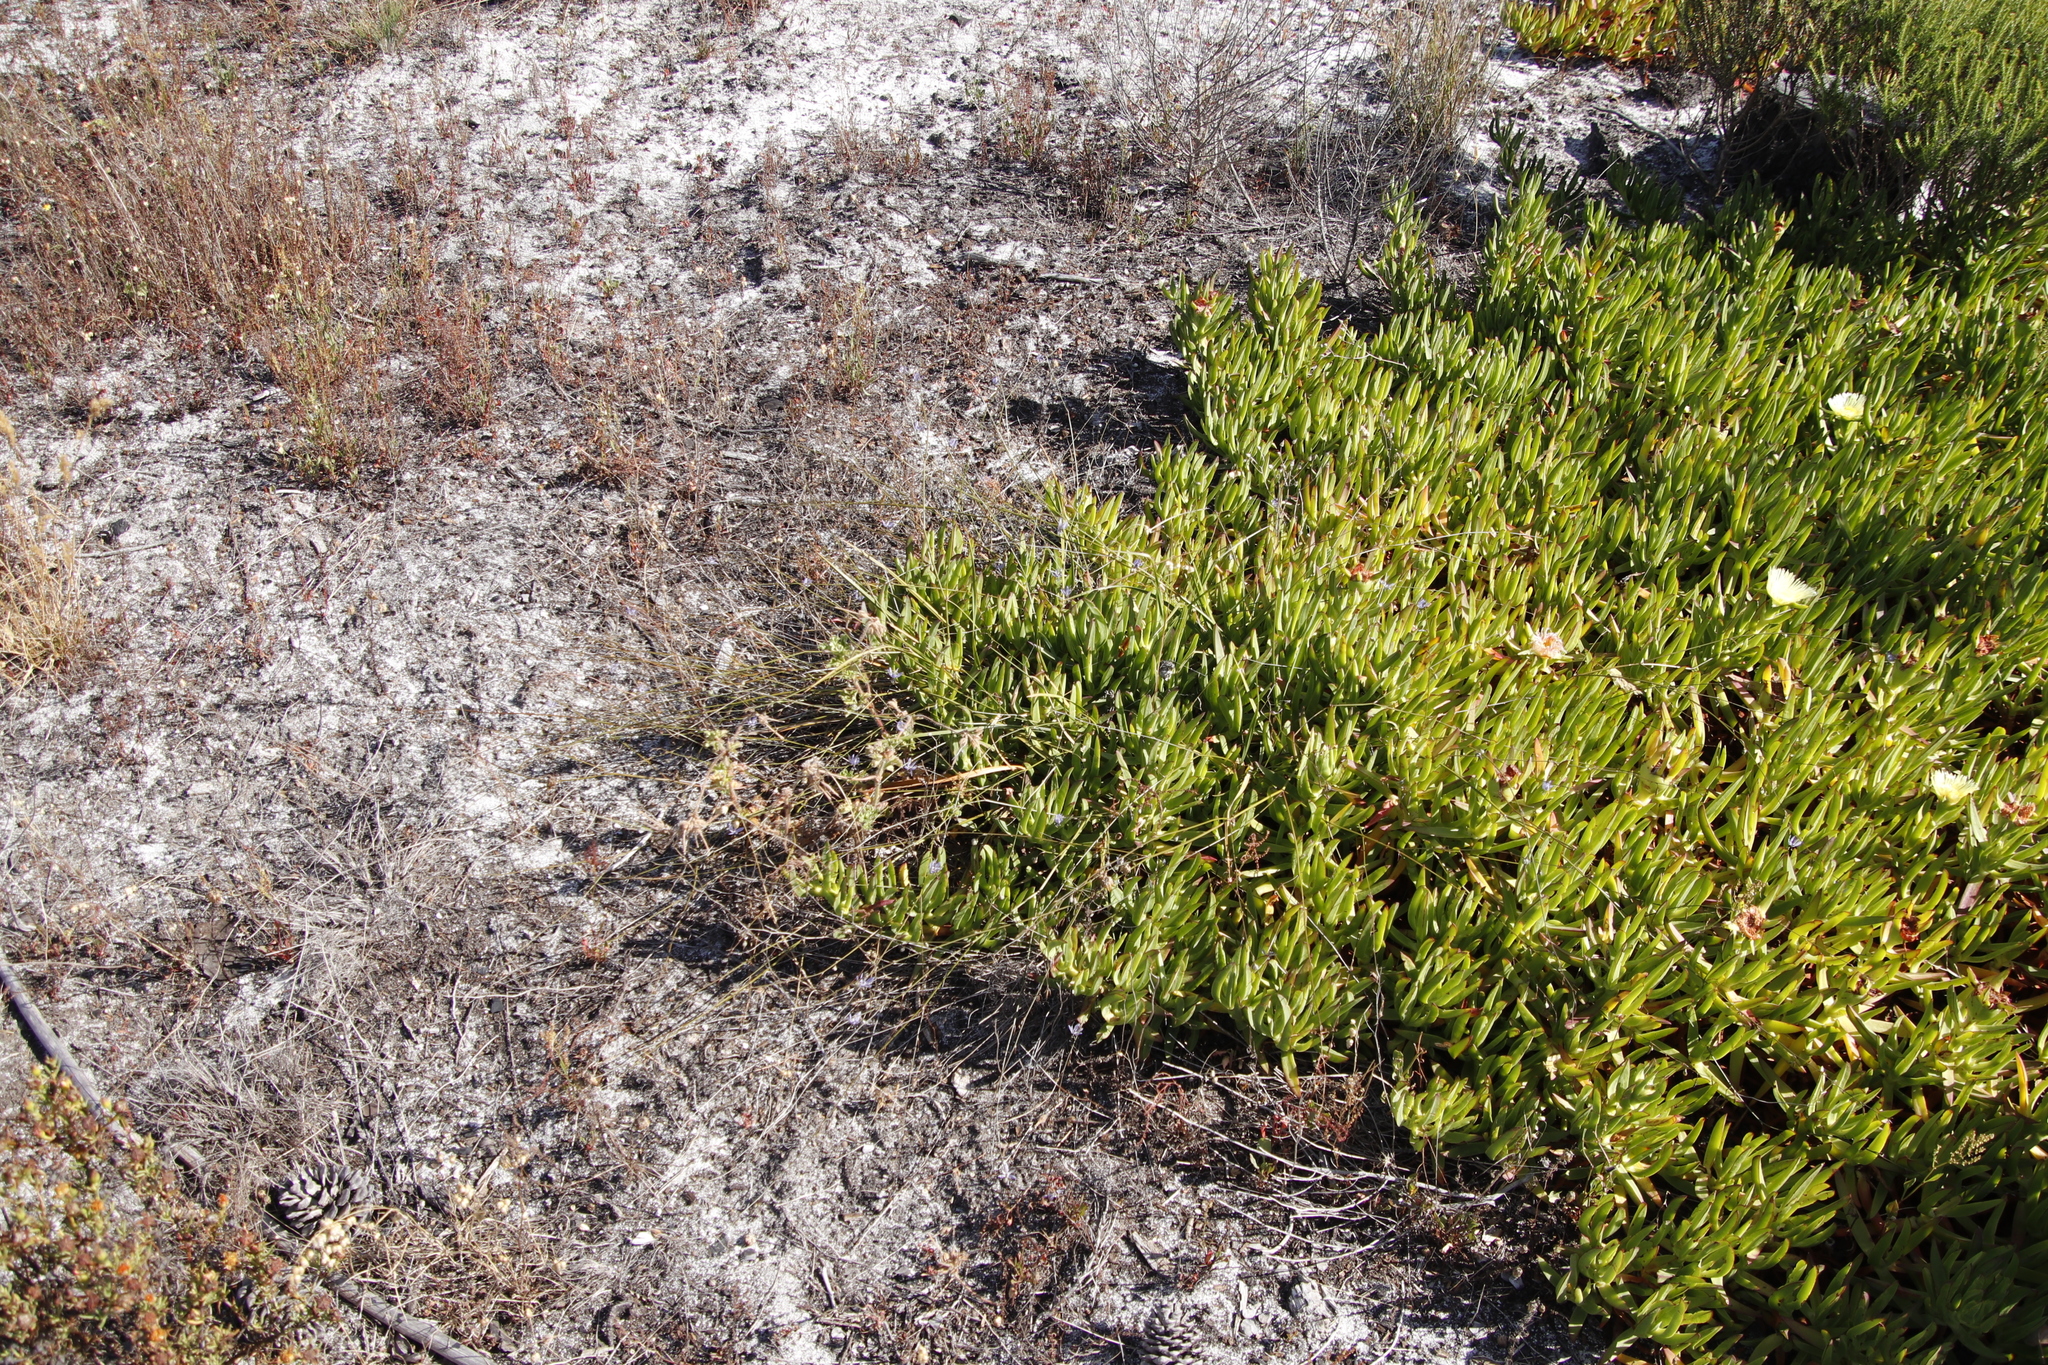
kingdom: Plantae
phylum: Tracheophyta
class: Liliopsida
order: Asparagales
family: Asphodelaceae
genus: Caesia
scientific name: Caesia contorta
